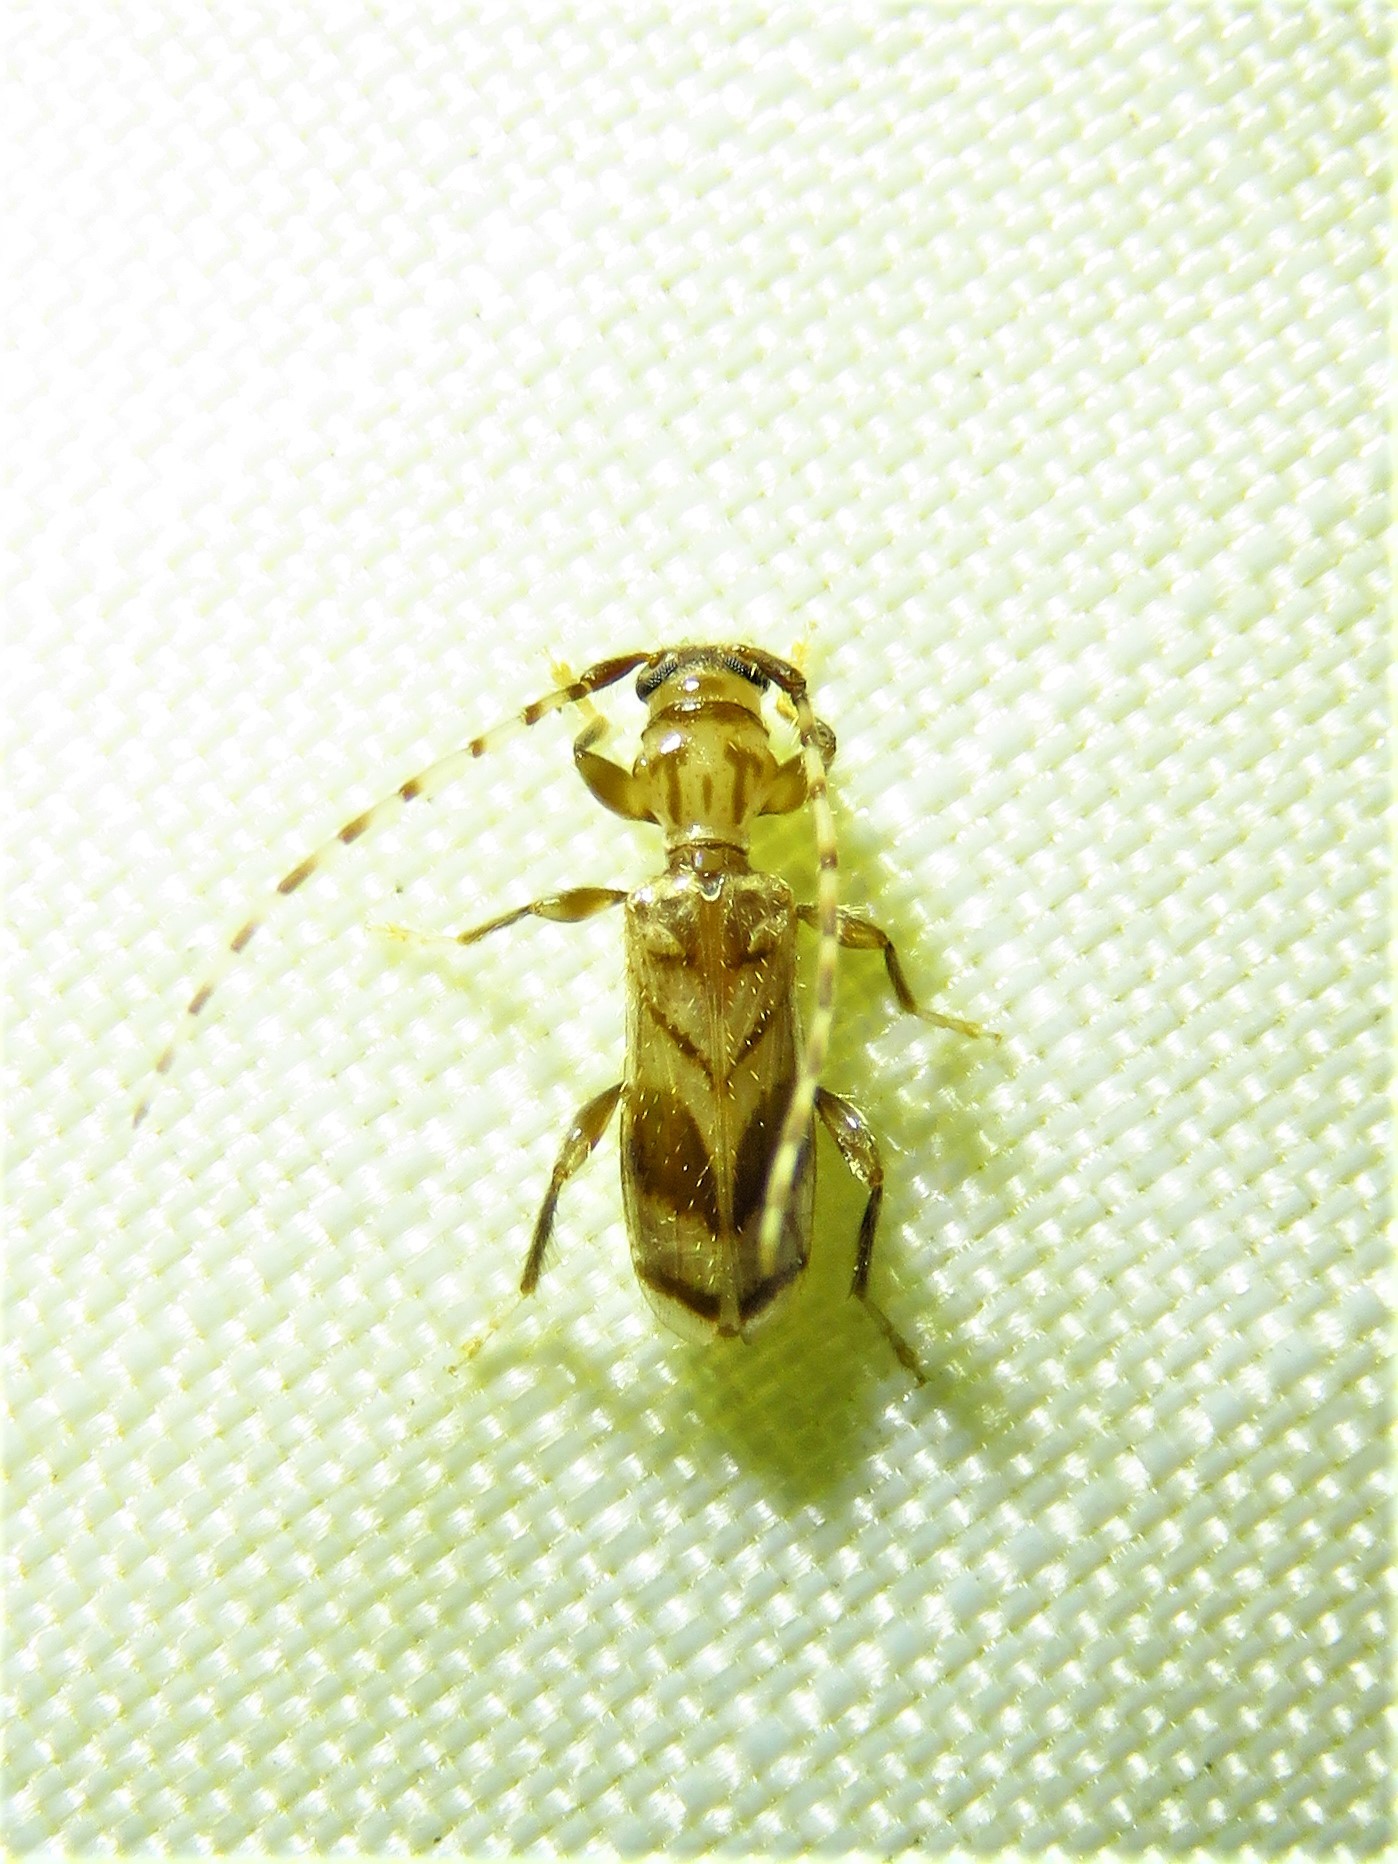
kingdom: Animalia
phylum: Arthropoda
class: Insecta
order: Coleoptera
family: Cerambycidae
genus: Obrium
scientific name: Obrium maculatum
